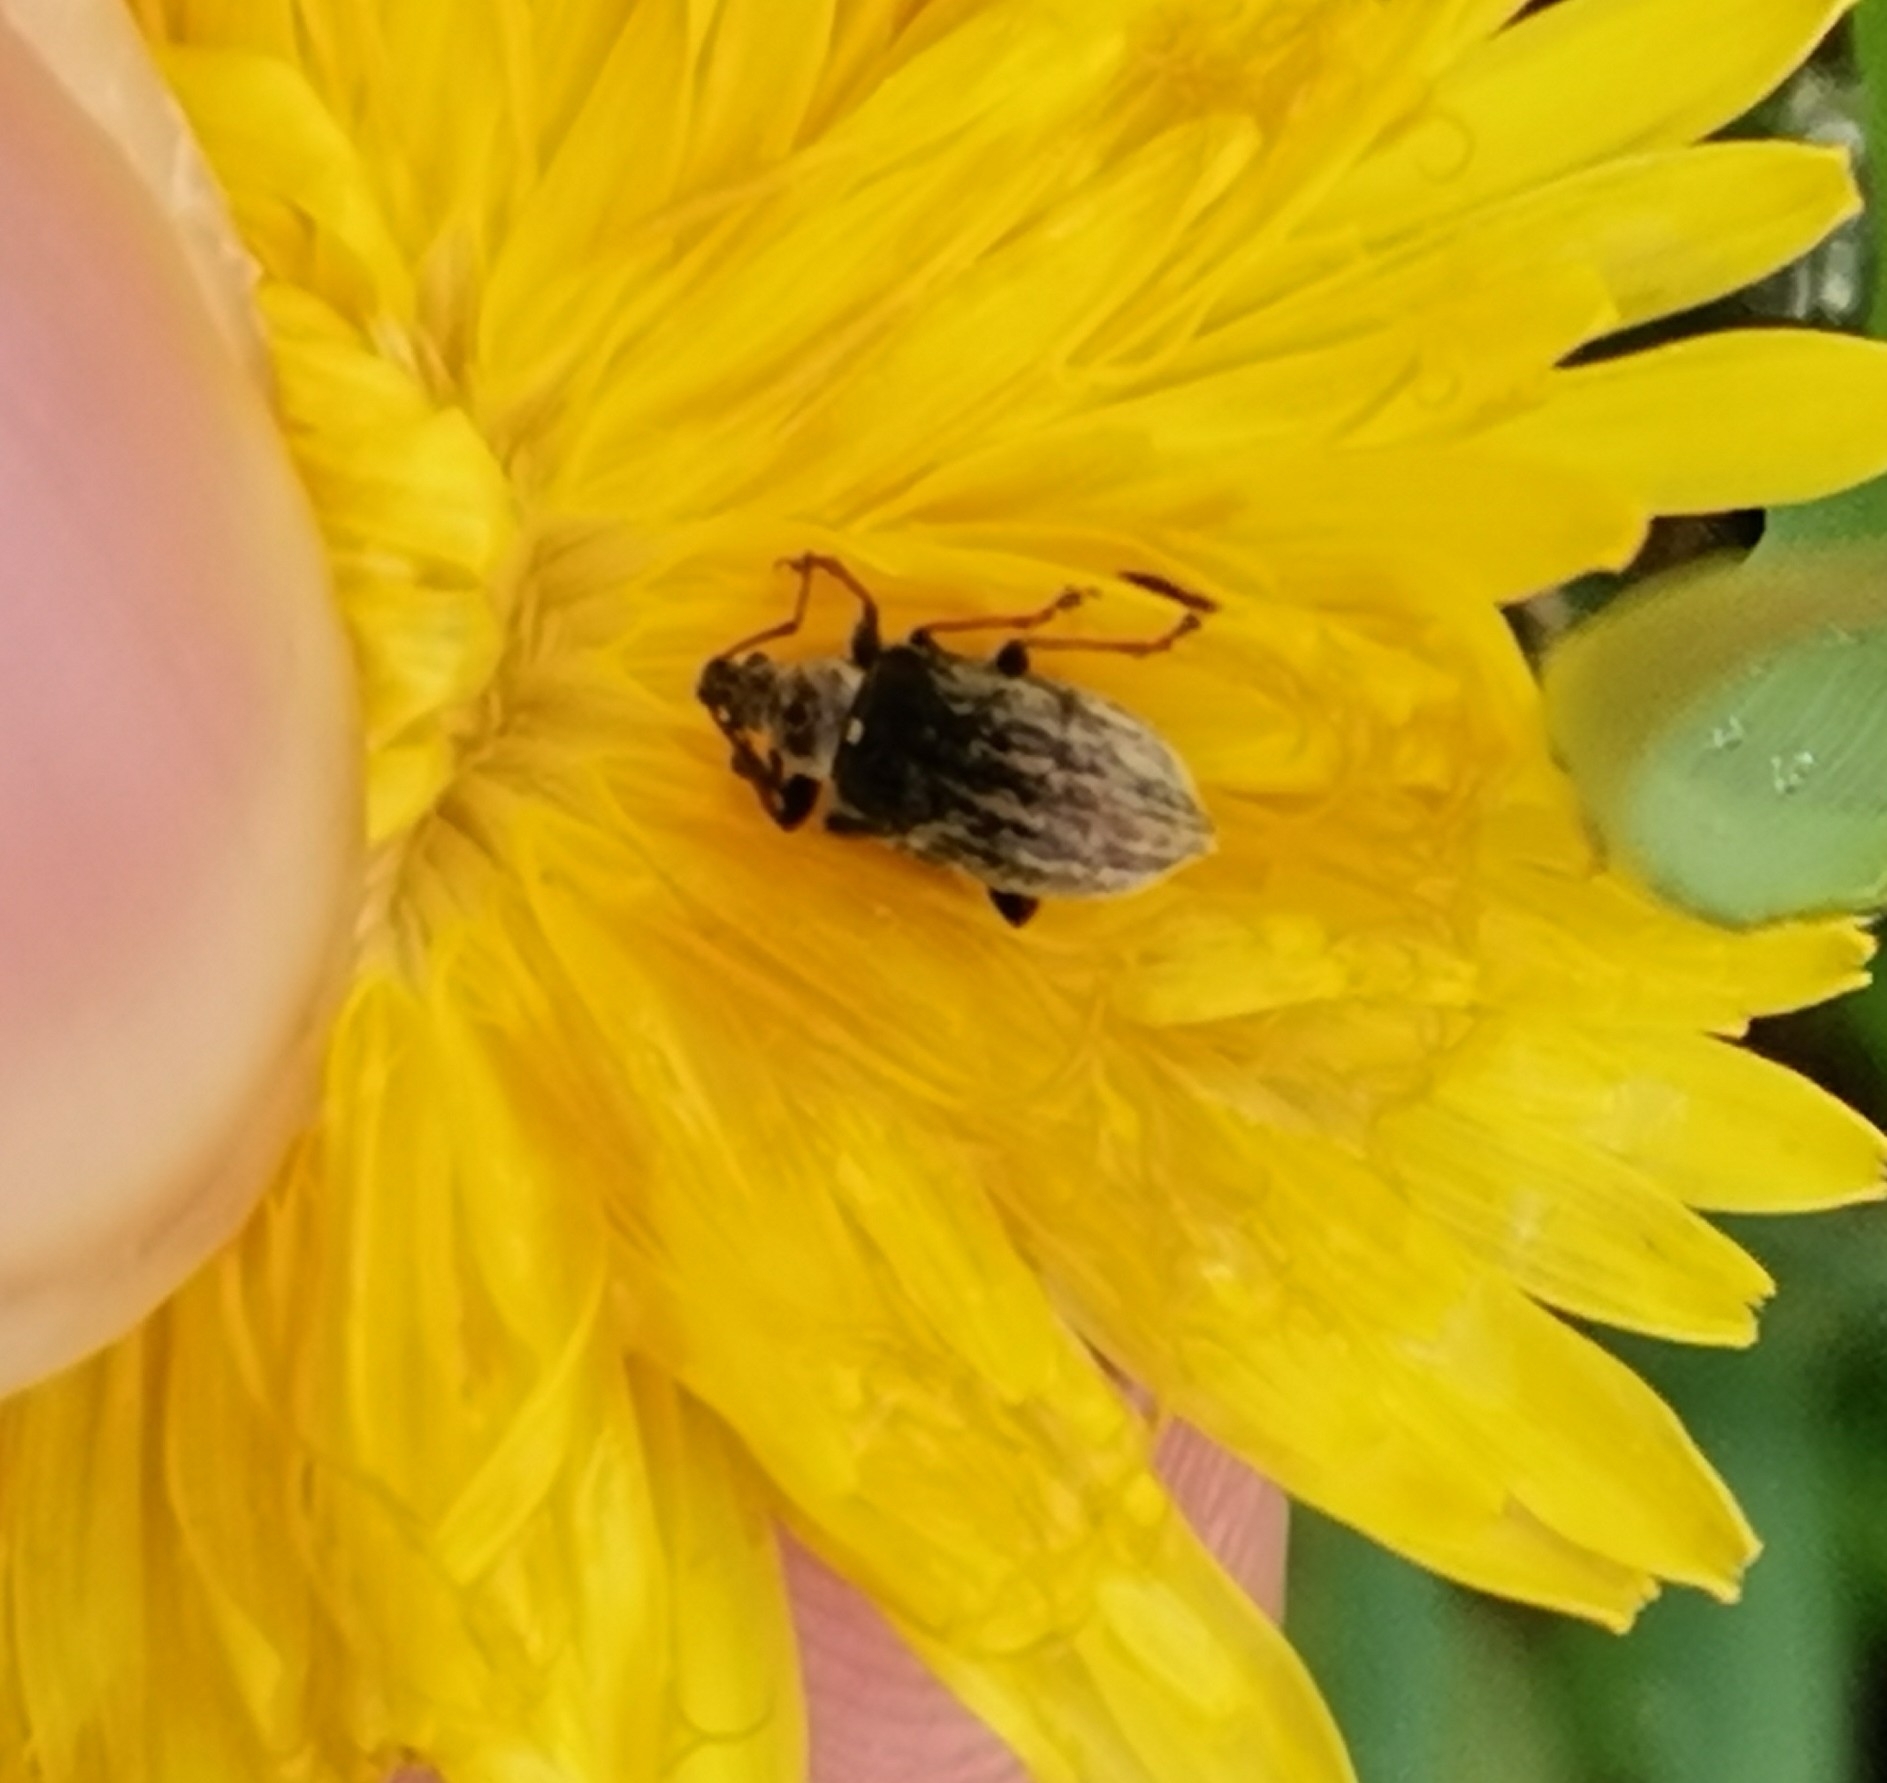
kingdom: Animalia
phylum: Arthropoda
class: Insecta
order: Coleoptera
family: Curculionidae
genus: Phyllobius
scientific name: Phyllobius pyri
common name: Common leaf weevil
